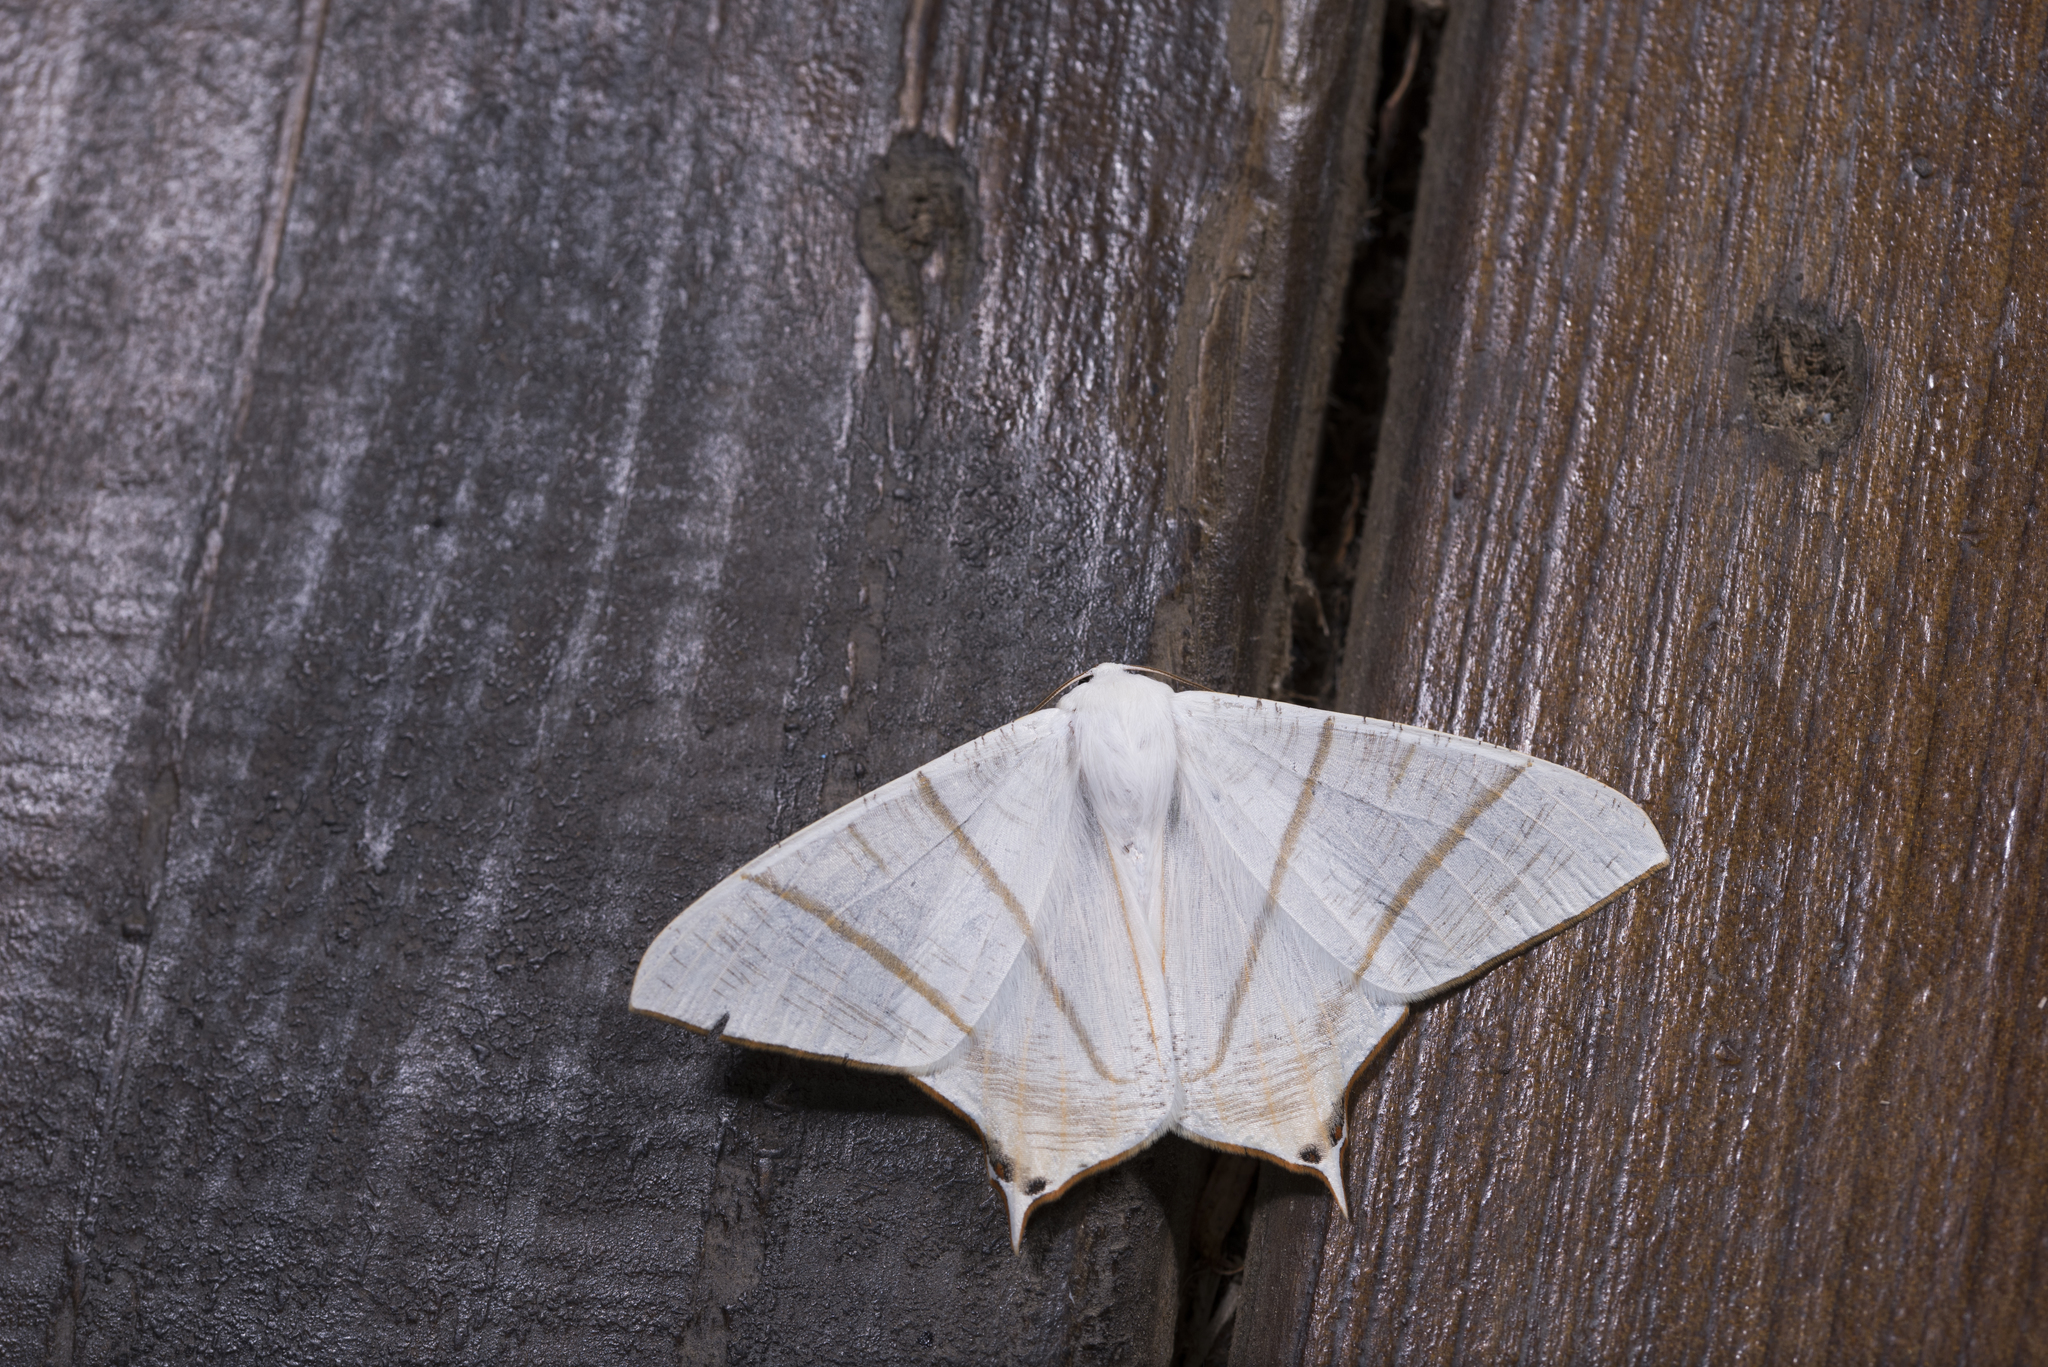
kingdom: Animalia
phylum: Arthropoda
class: Insecta
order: Lepidoptera
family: Geometridae
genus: Ourapteryx
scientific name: Ourapteryx changi
